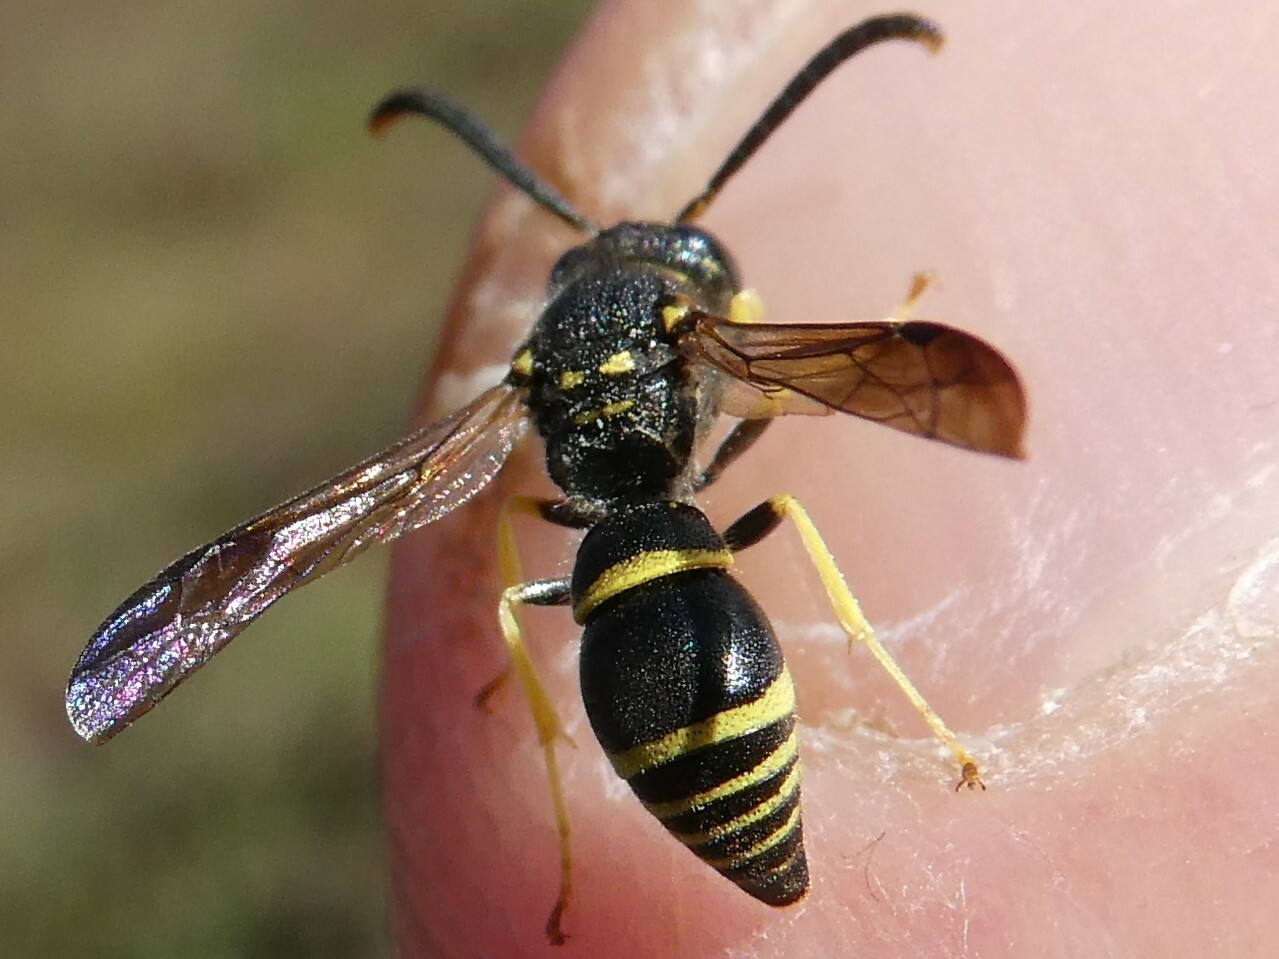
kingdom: Animalia
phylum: Arthropoda
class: Insecta
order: Hymenoptera
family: Vespidae
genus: Ancistrocerus
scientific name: Ancistrocerus
